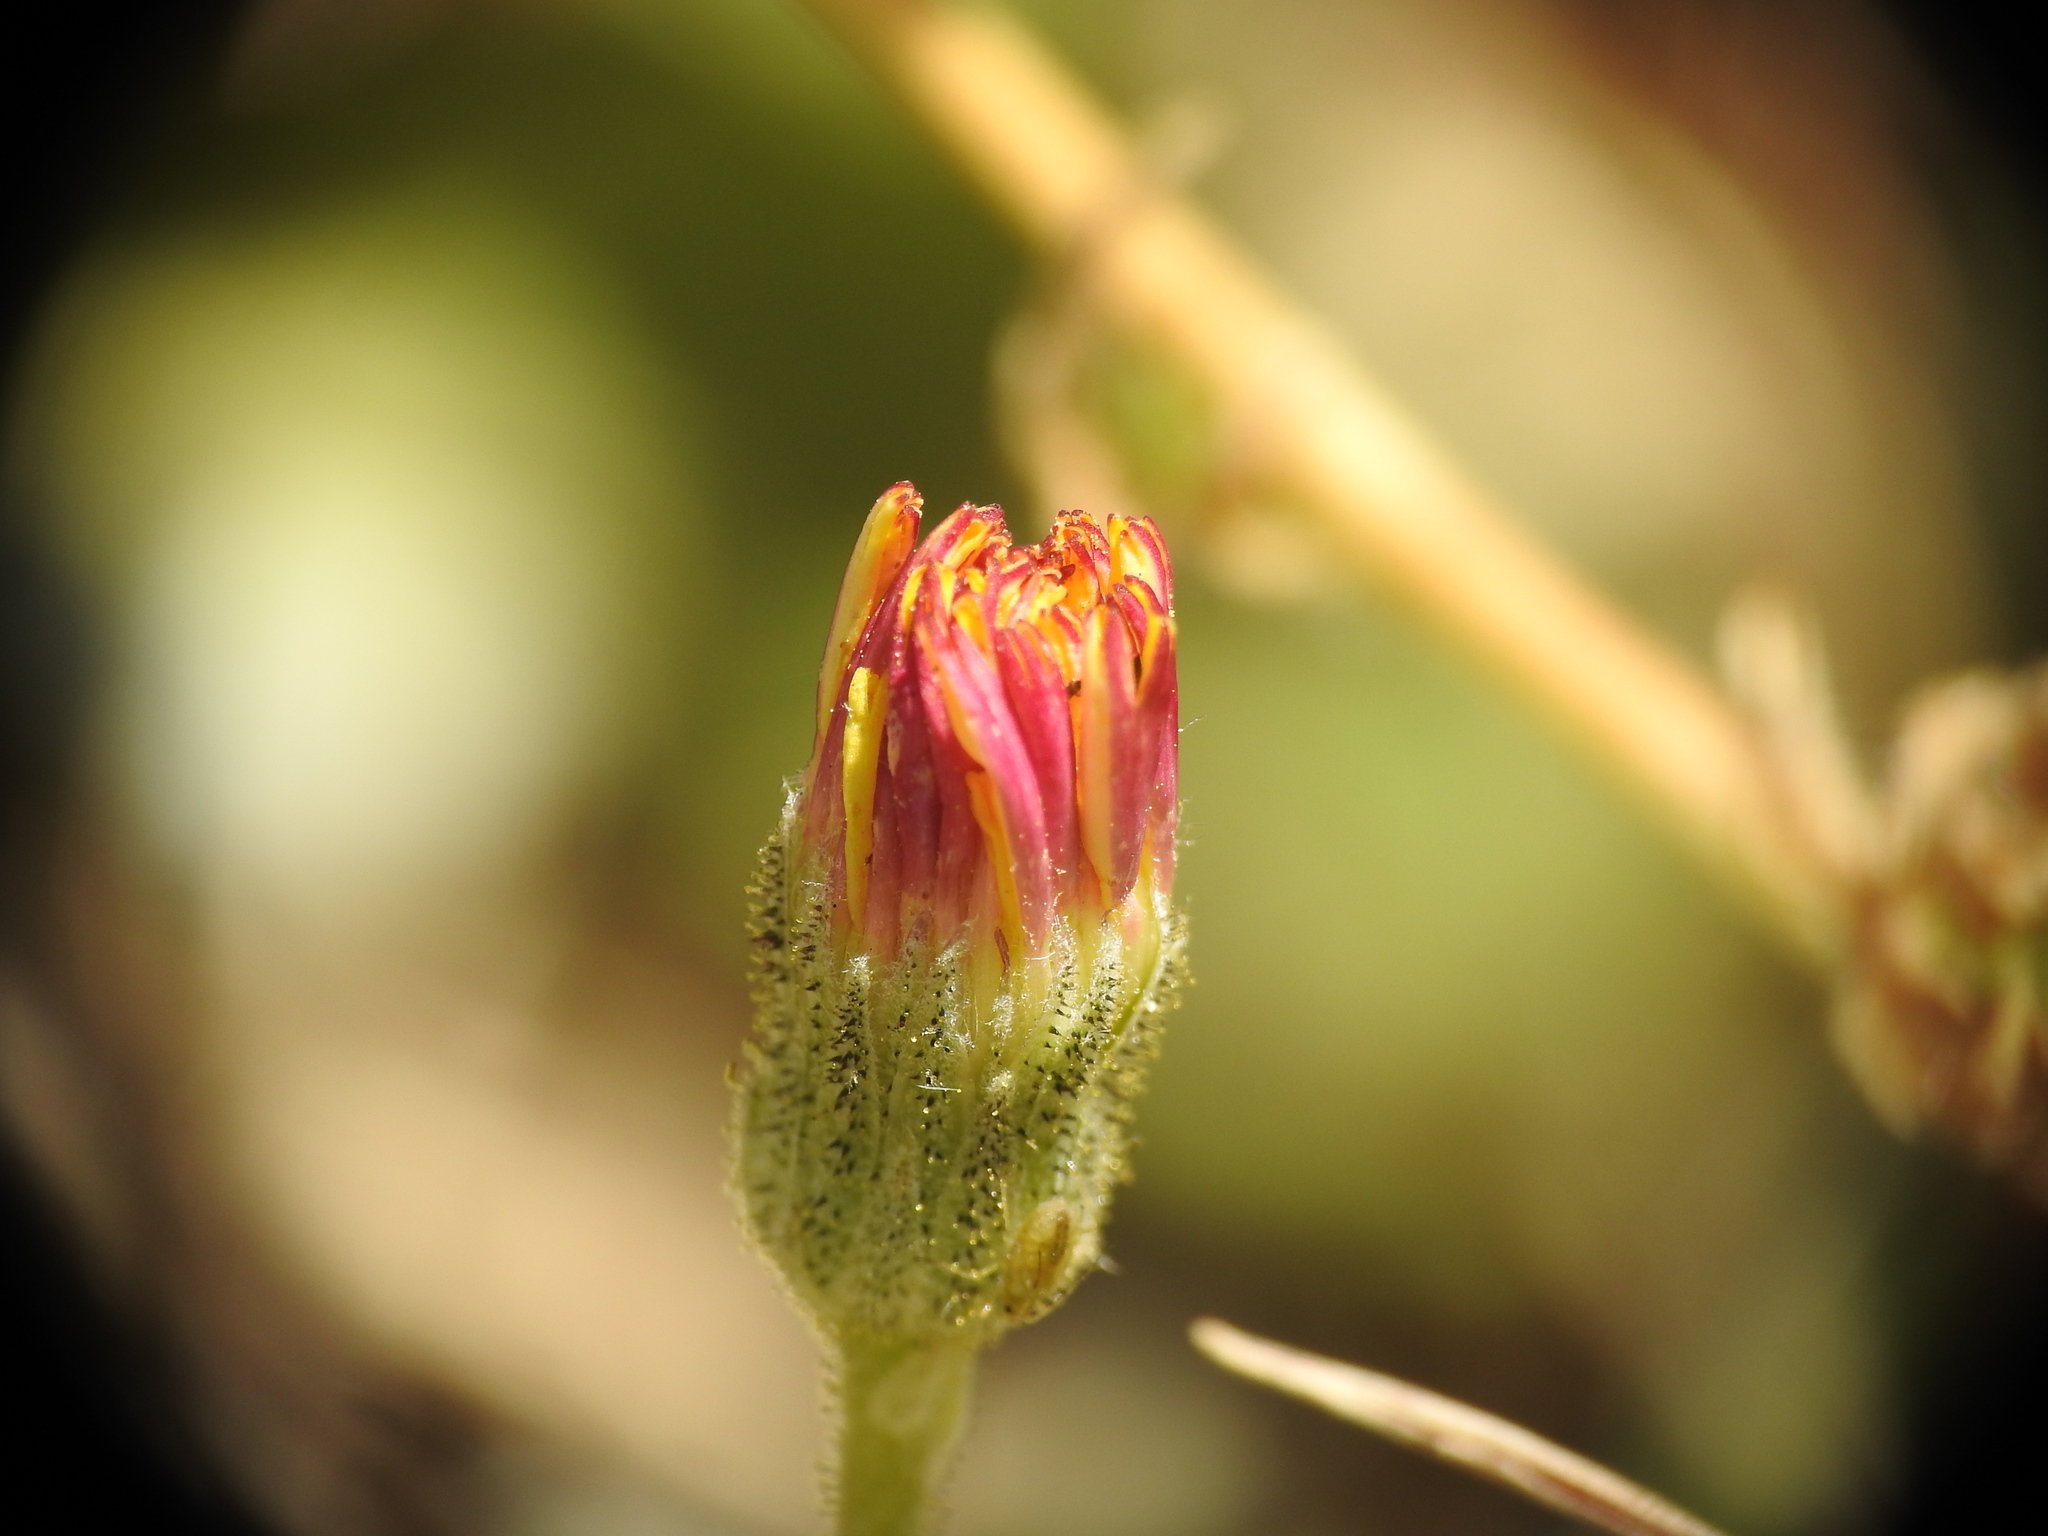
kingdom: Plantae
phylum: Tracheophyta
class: Magnoliopsida
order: Asterales
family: Asteraceae
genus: Pilosella
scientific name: Pilosella officinarum
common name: Mouse-ear hawkweed
